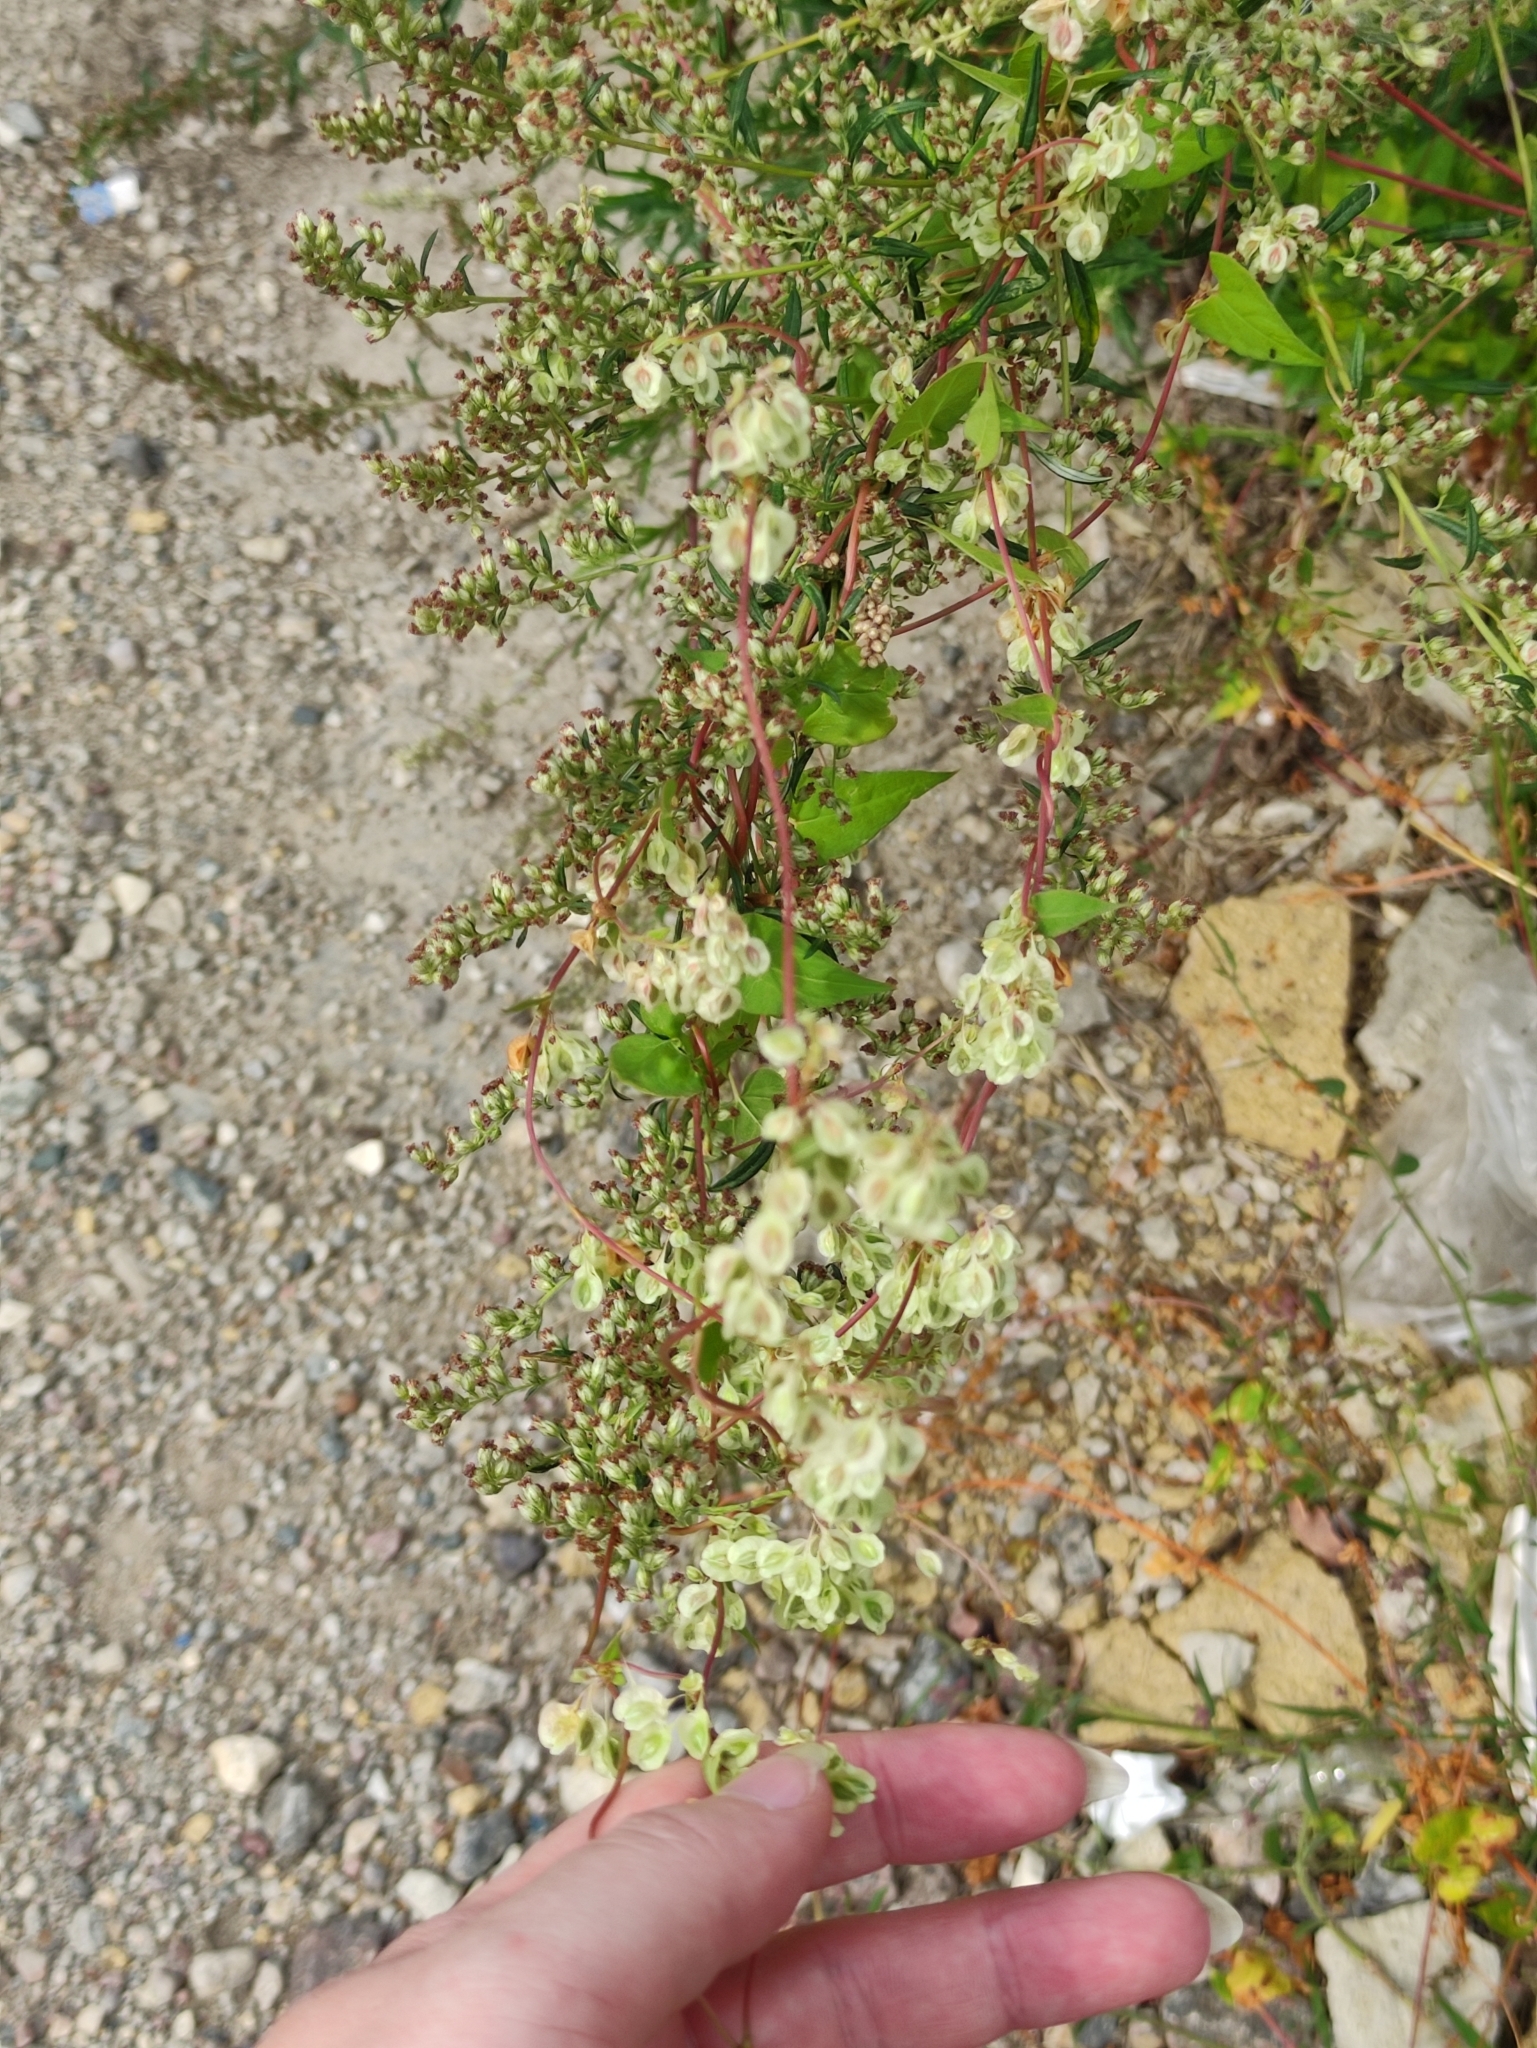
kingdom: Plantae
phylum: Tracheophyta
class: Magnoliopsida
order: Caryophyllales
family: Polygonaceae
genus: Fallopia
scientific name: Fallopia dumetorum
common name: Copse-bindweed
